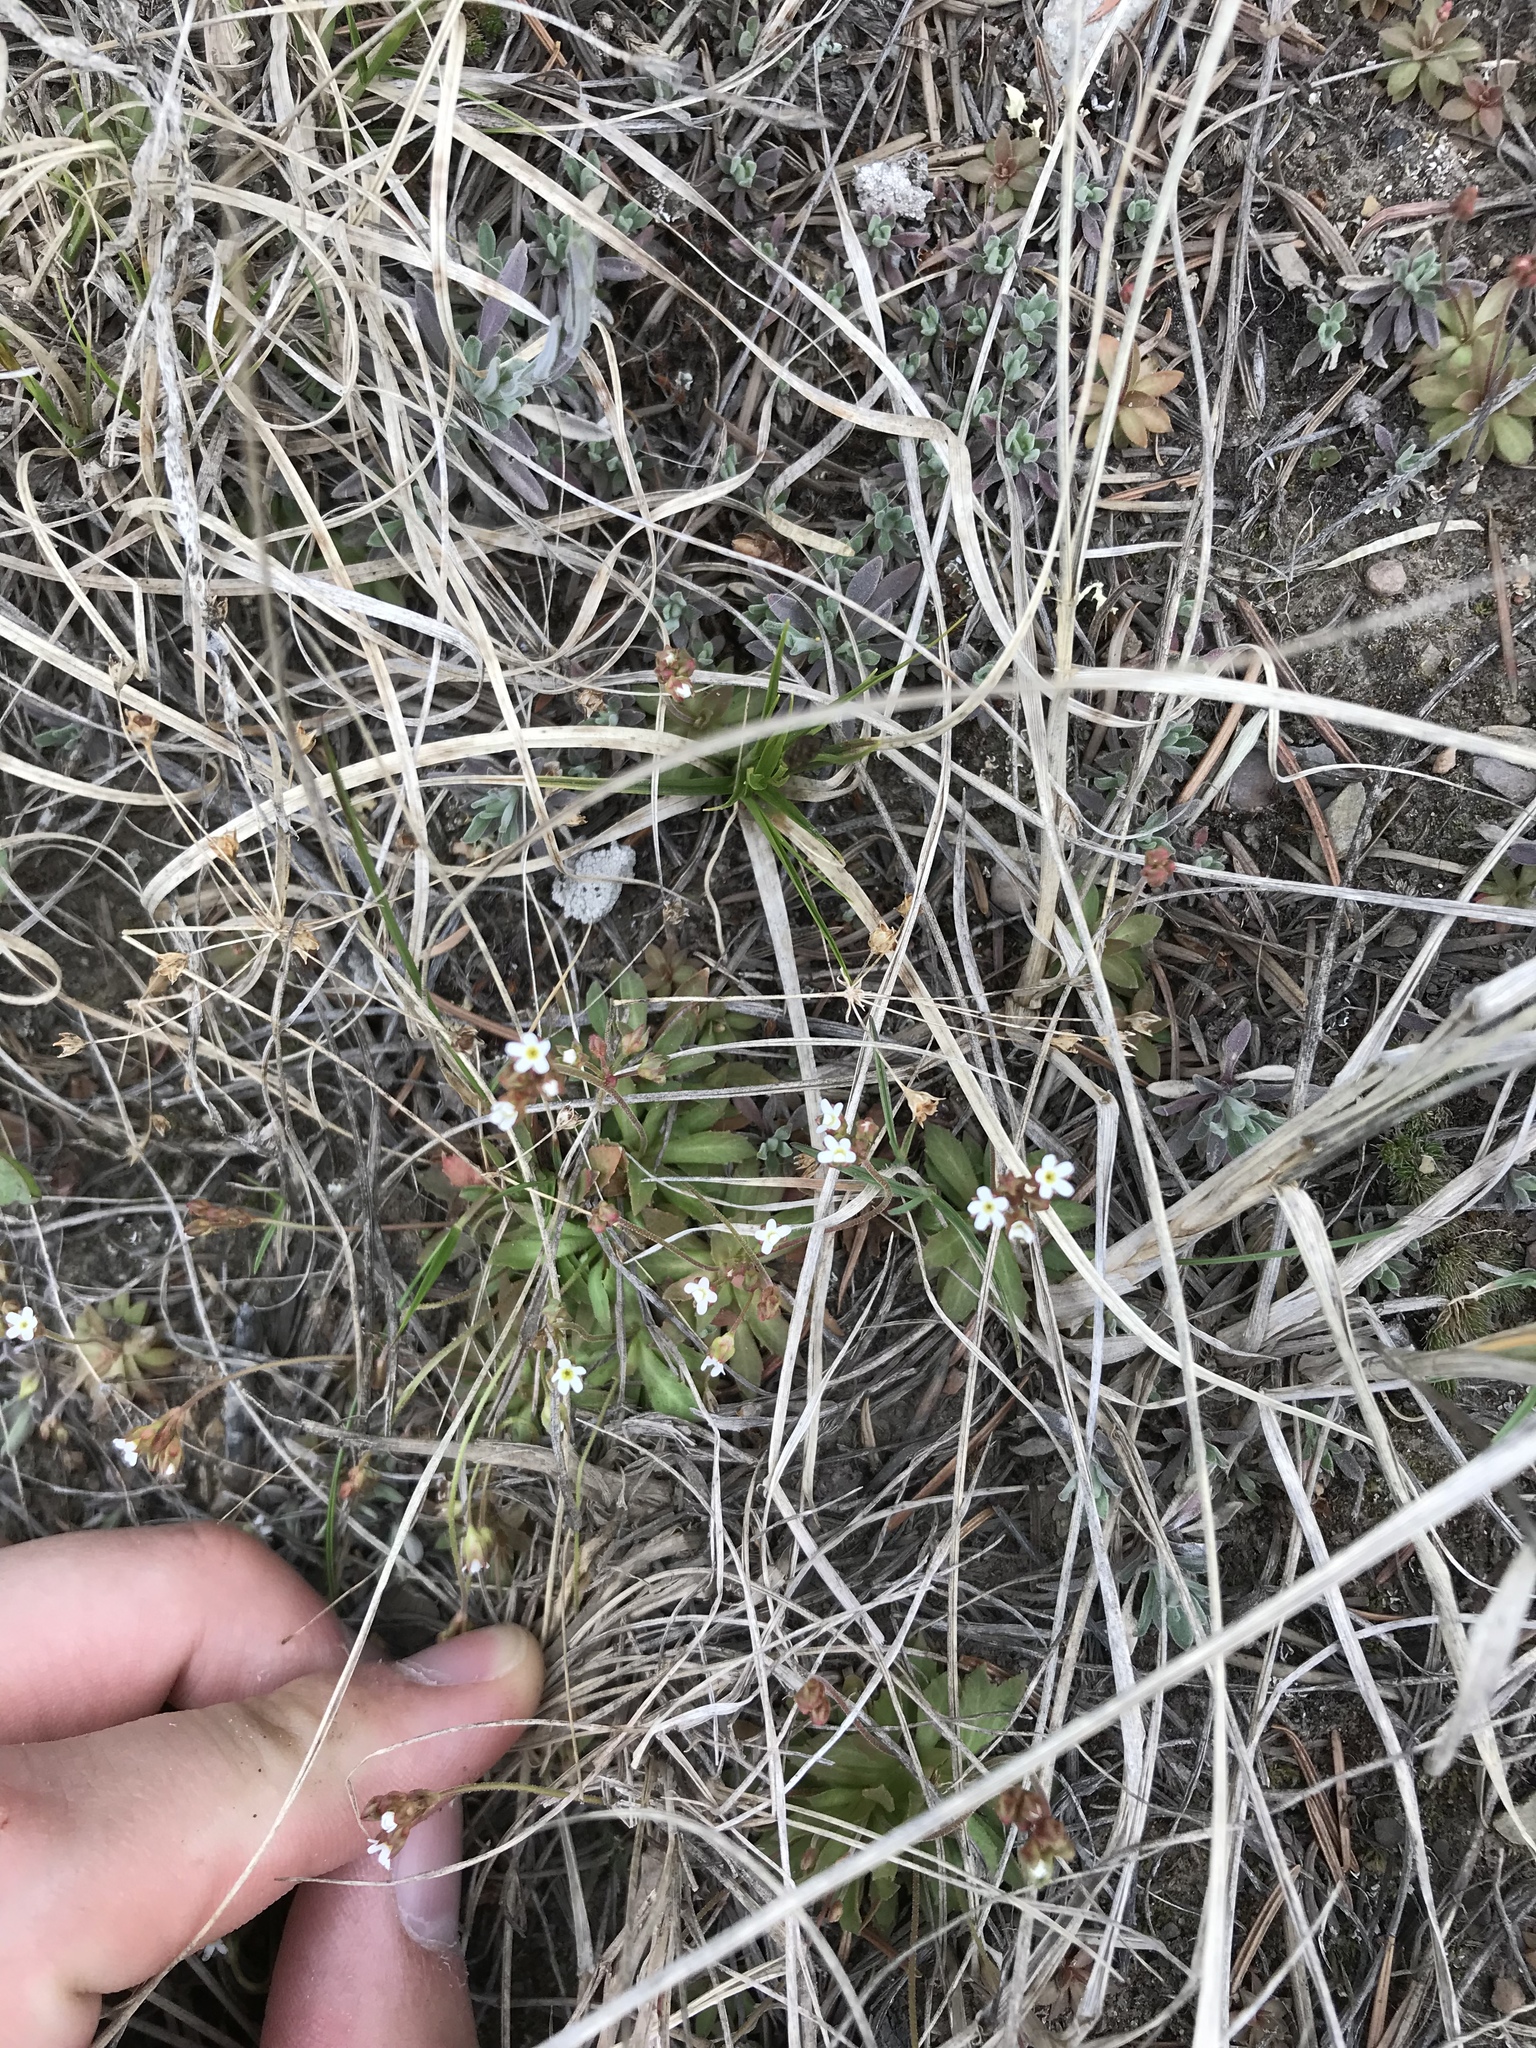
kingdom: Plantae
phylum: Tracheophyta
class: Magnoliopsida
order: Ericales
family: Primulaceae
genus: Androsace
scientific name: Androsace septentrionalis
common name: Hairy northern fairy-candelabra
